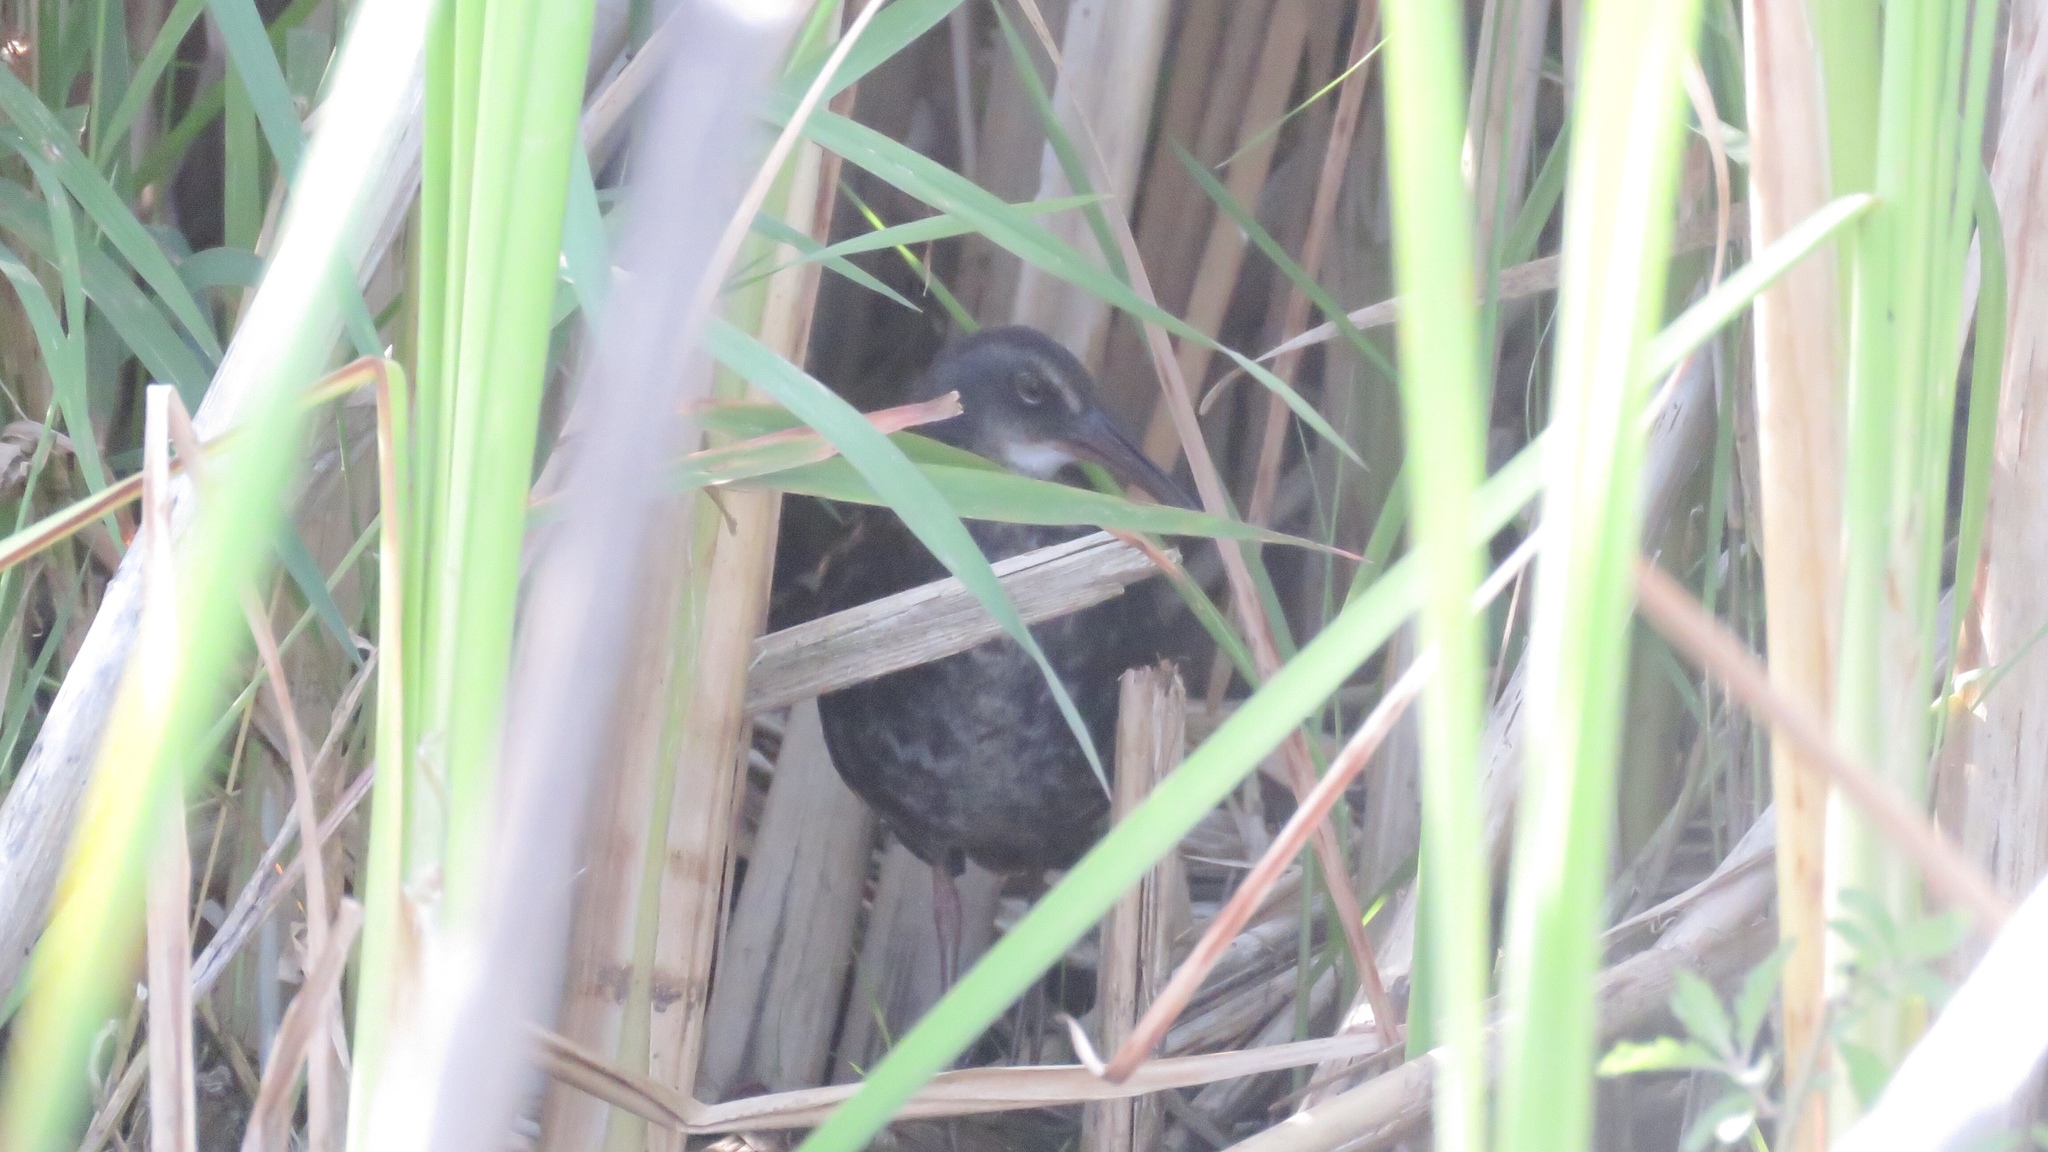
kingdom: Animalia
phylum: Chordata
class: Aves
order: Gruiformes
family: Rallidae
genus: Rallus
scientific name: Rallus limicola
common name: Virginia rail
